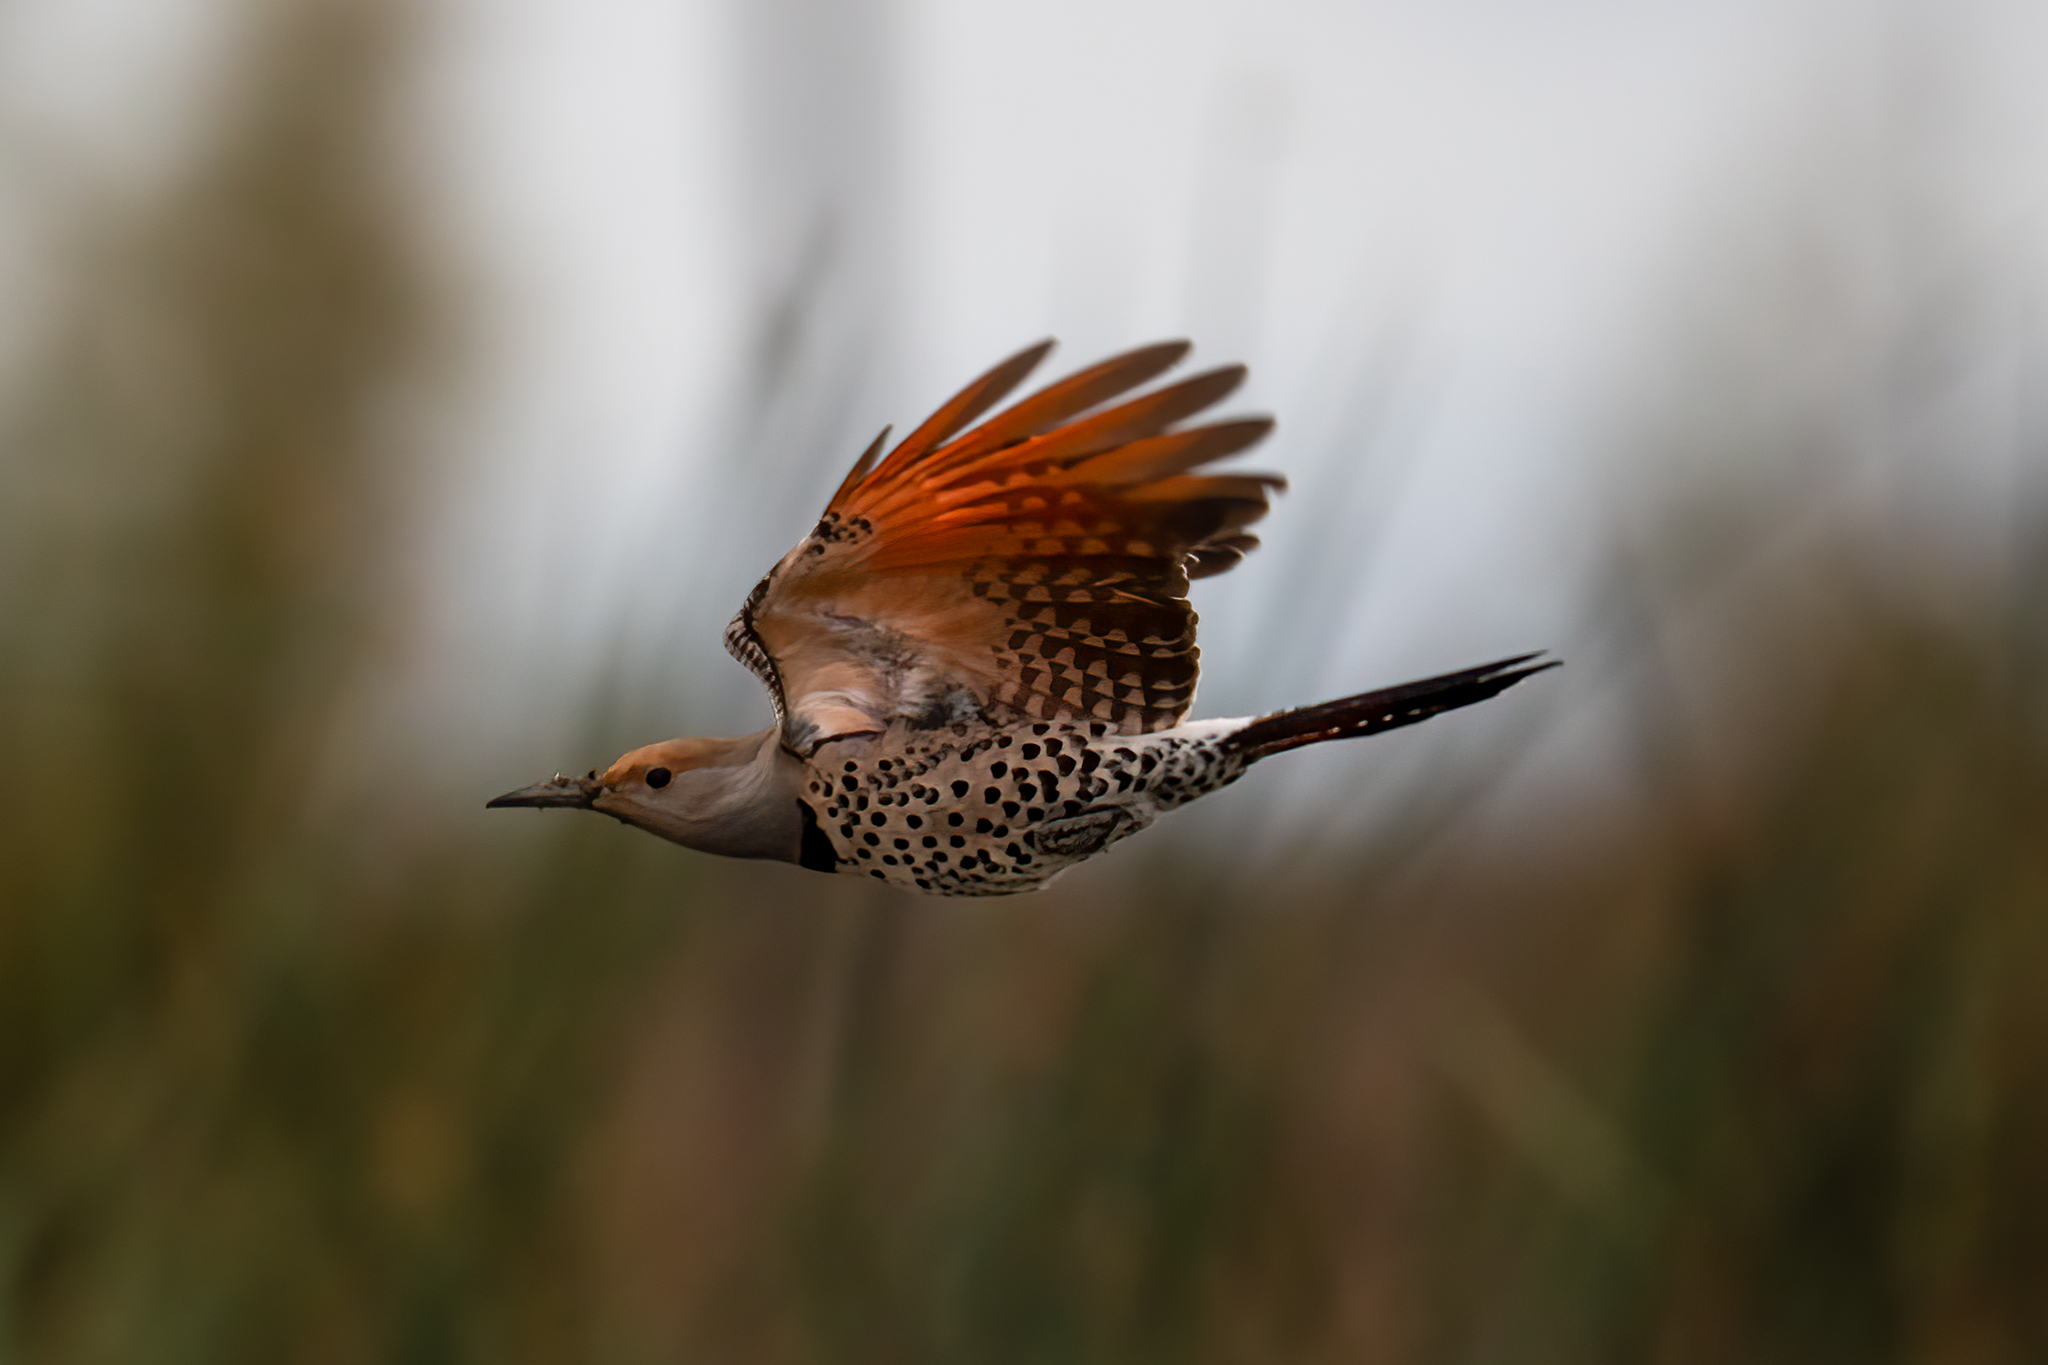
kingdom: Animalia
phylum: Chordata
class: Aves
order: Piciformes
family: Picidae
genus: Colaptes
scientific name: Colaptes auratus
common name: Northern flicker
